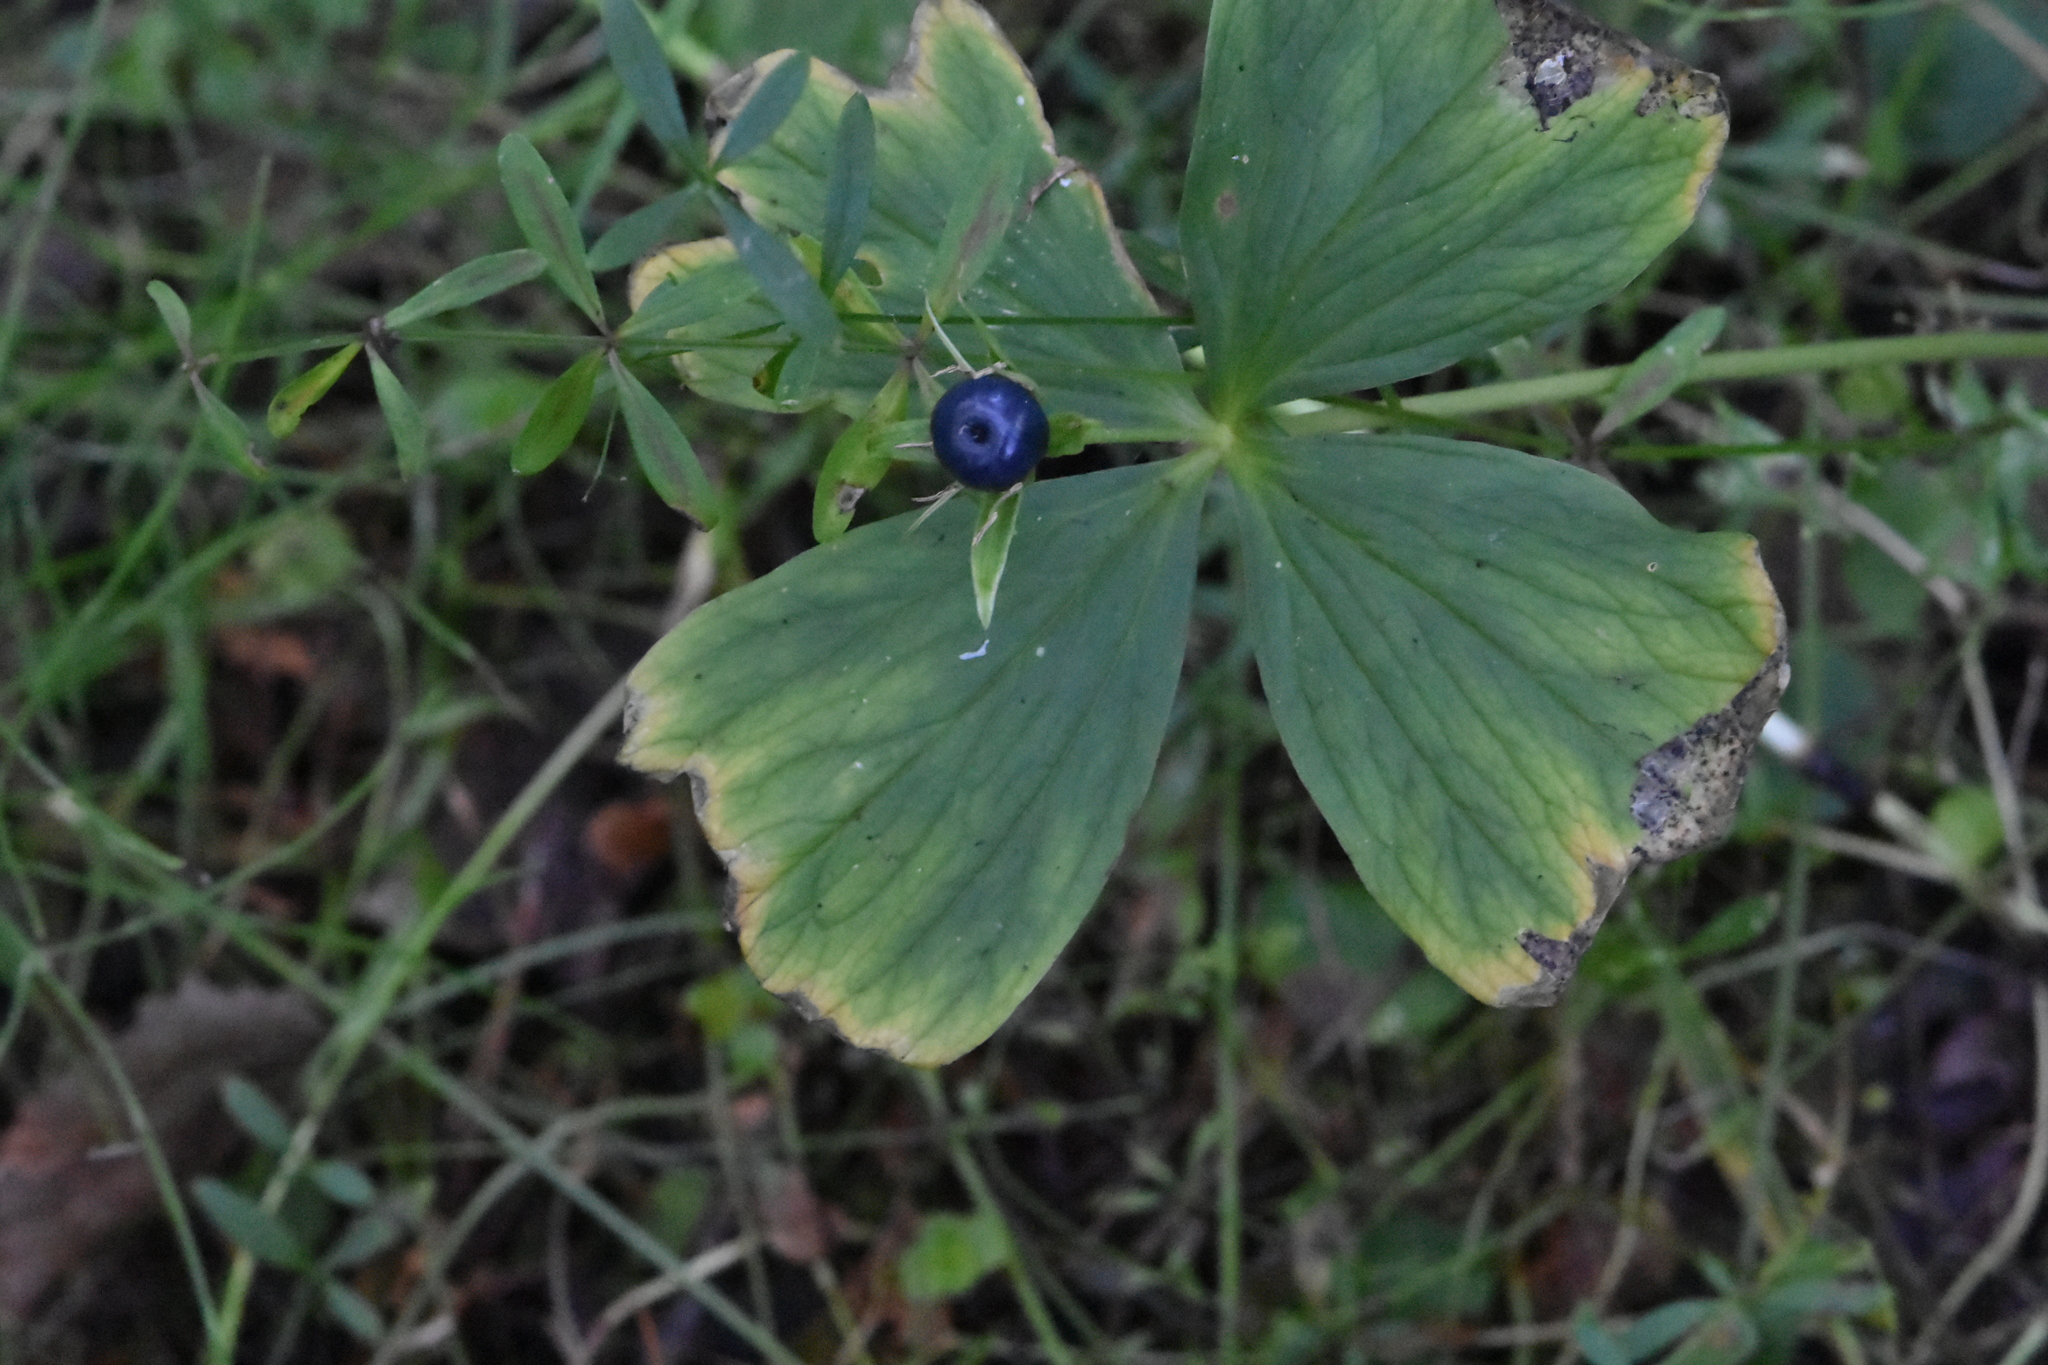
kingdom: Plantae
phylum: Tracheophyta
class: Liliopsida
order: Liliales
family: Melanthiaceae
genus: Paris
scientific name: Paris quadrifolia
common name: Herb-paris
